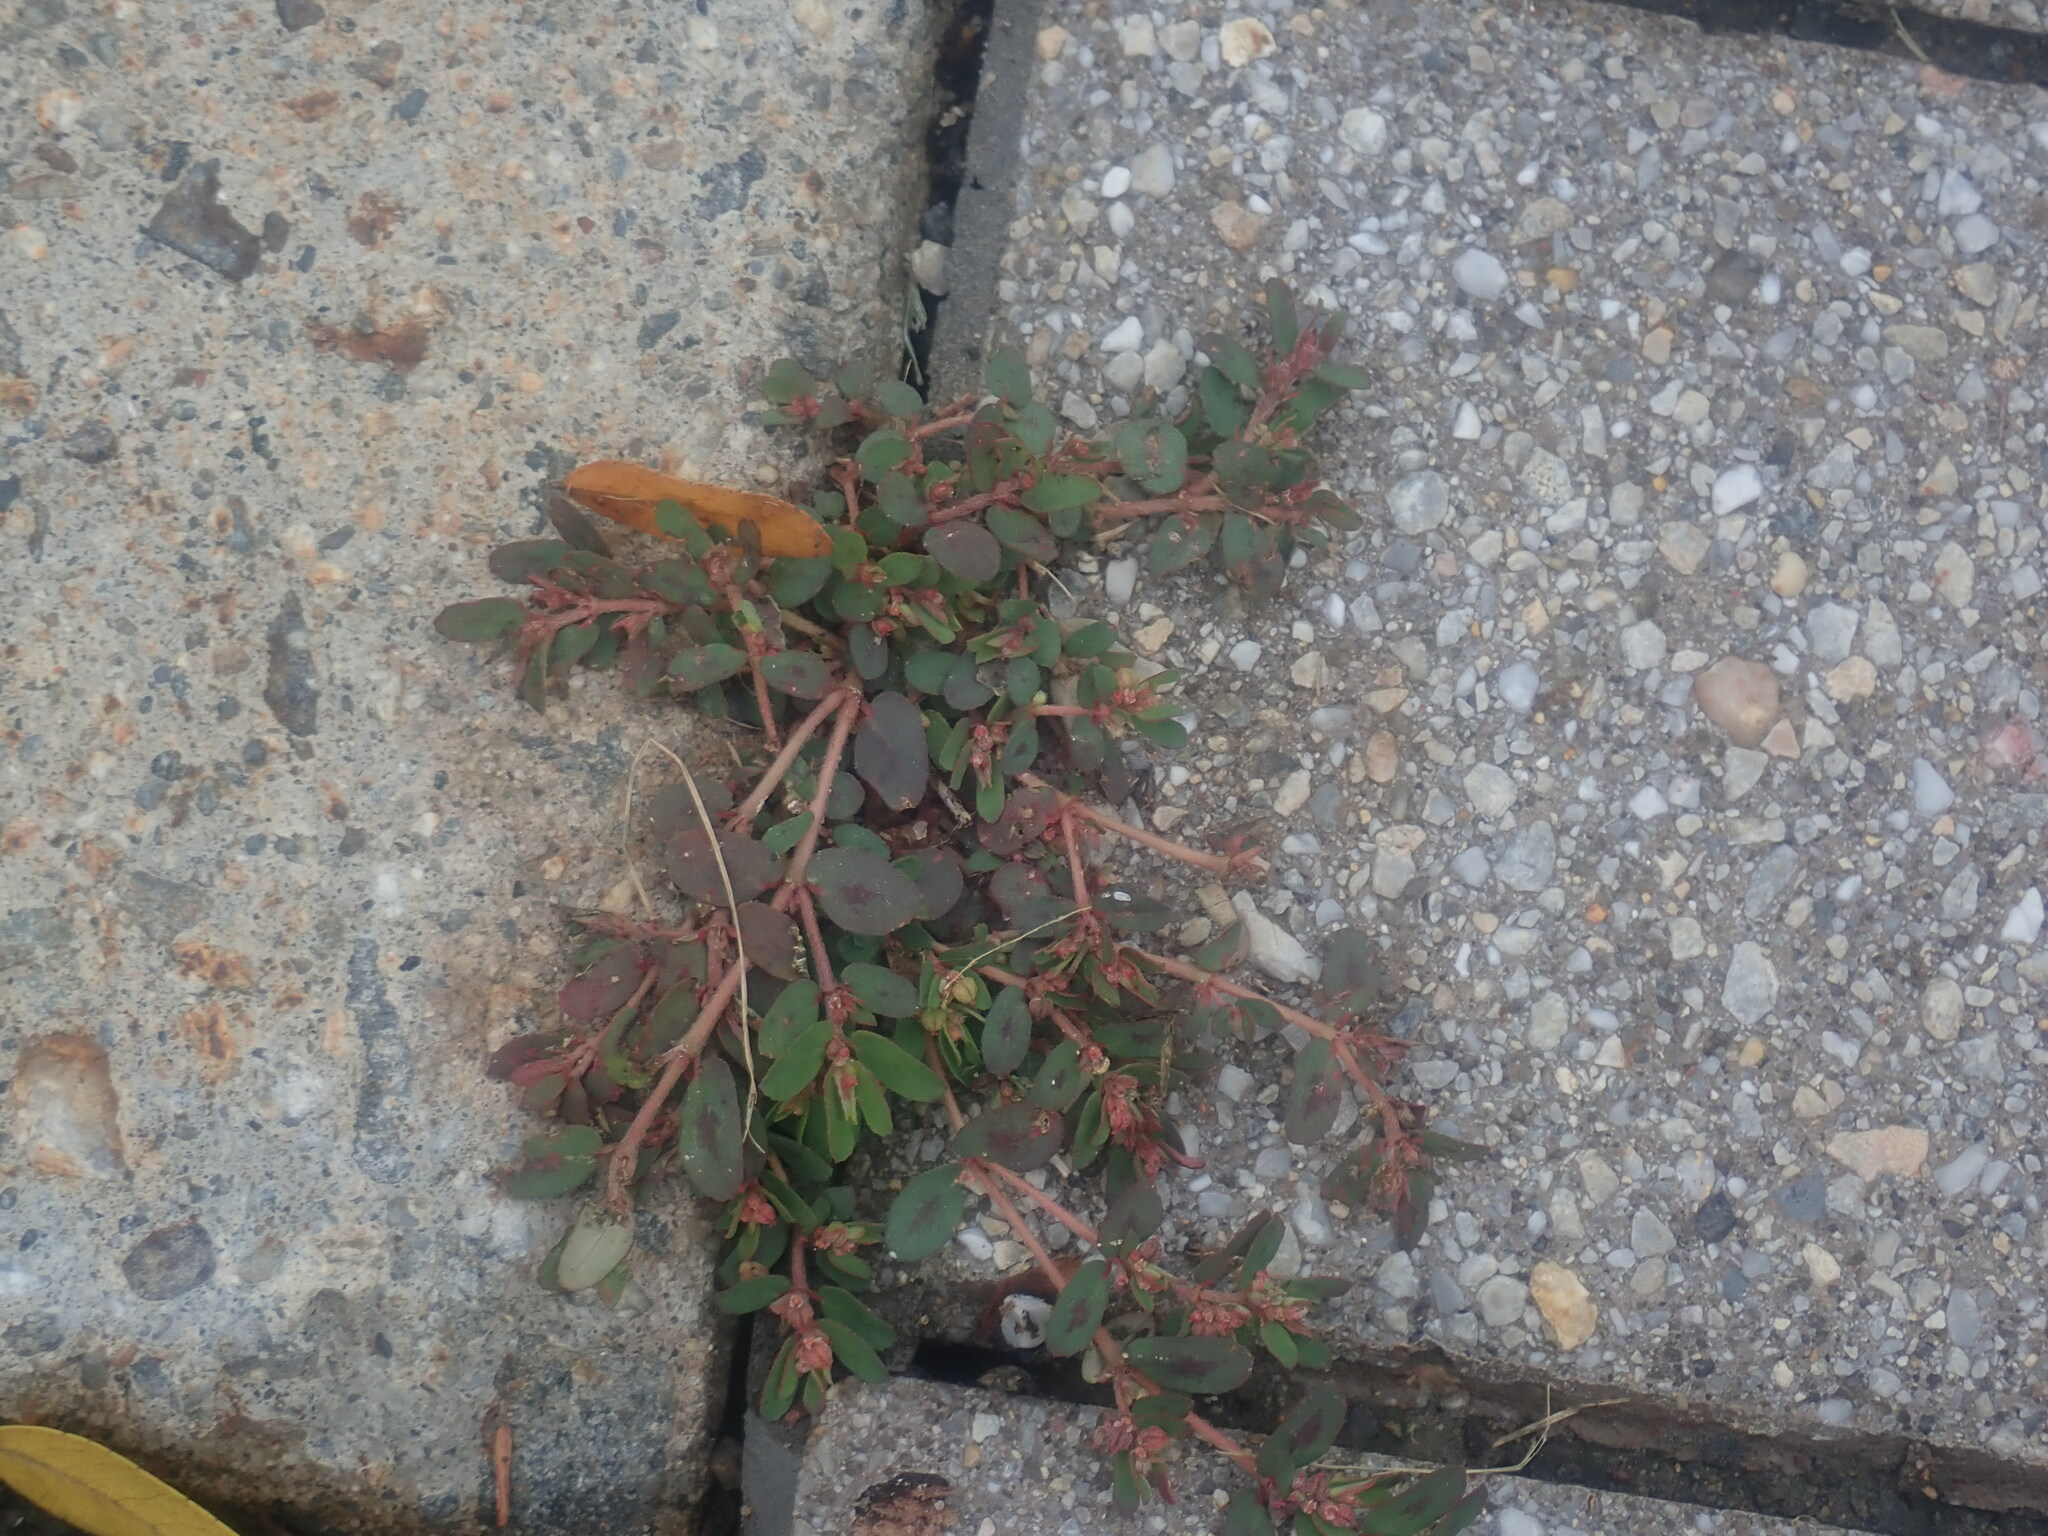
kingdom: Plantae
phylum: Tracheophyta
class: Magnoliopsida
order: Malpighiales
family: Euphorbiaceae
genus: Euphorbia
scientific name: Euphorbia maculata
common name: Spotted spurge
